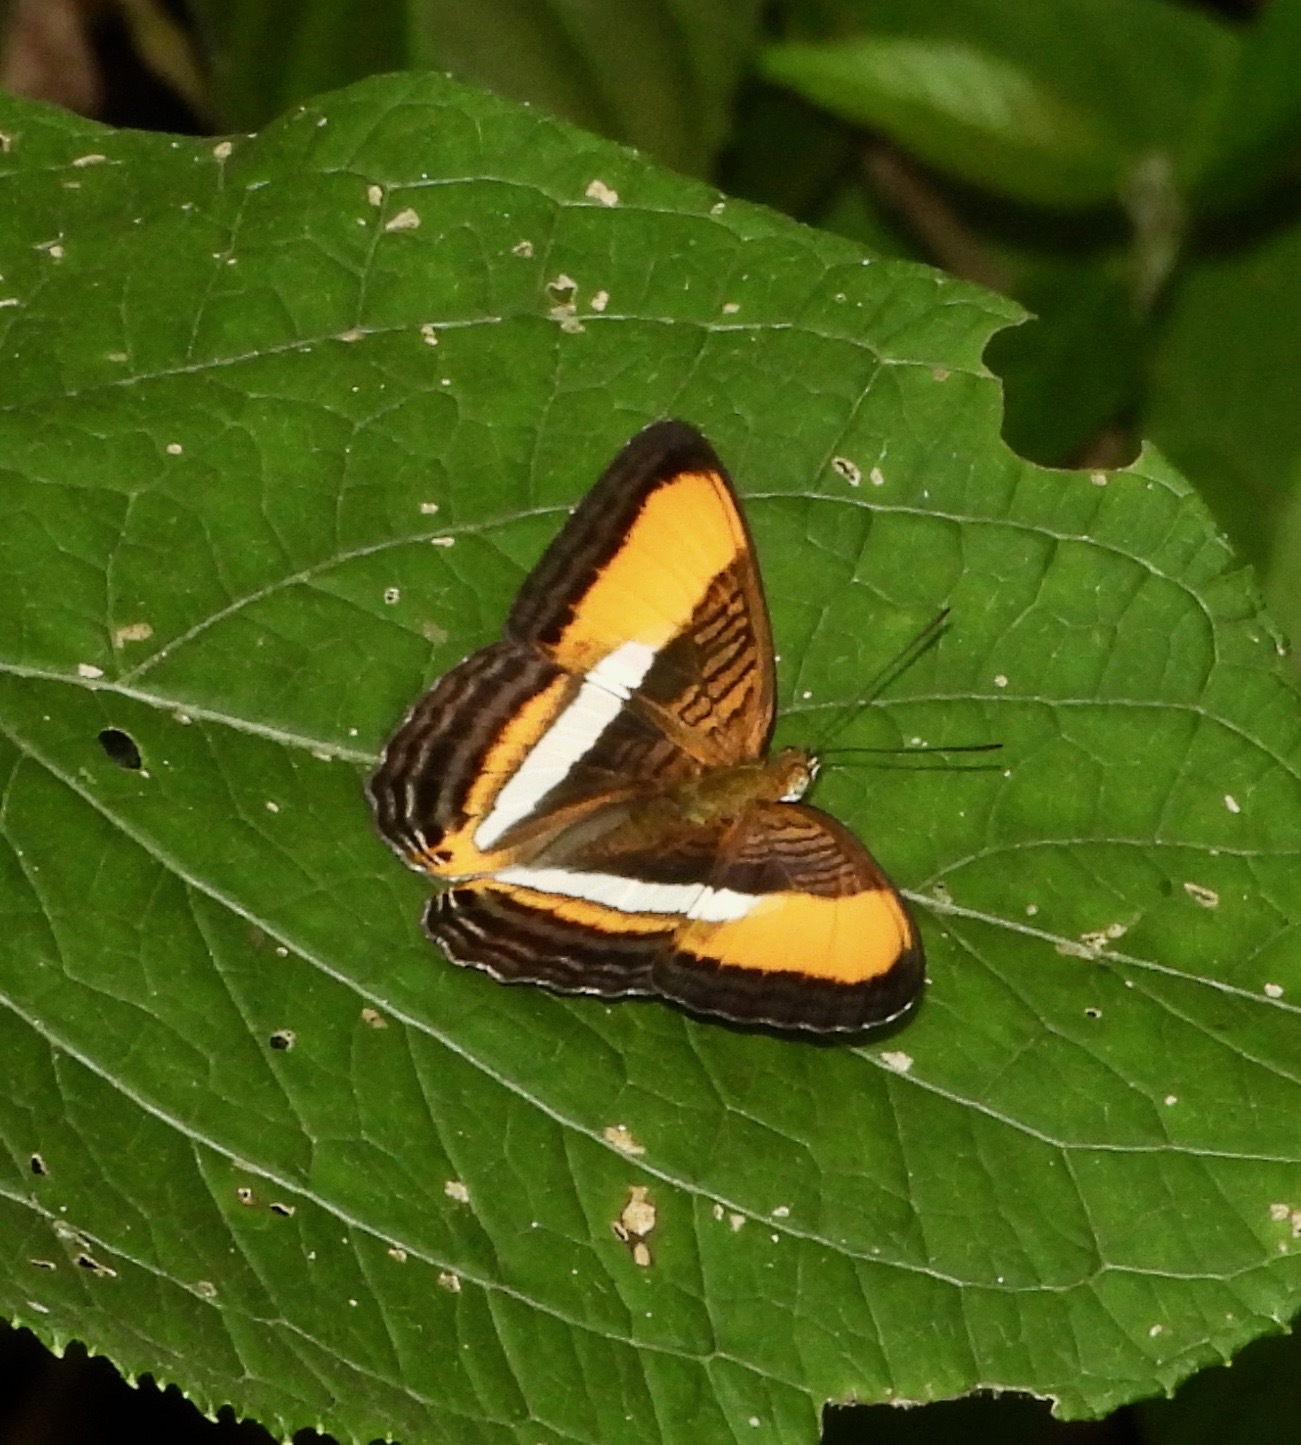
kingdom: Animalia
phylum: Arthropoda
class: Insecta
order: Lepidoptera
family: Nymphalidae
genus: Limenitis
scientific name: Limenitis cytherea
